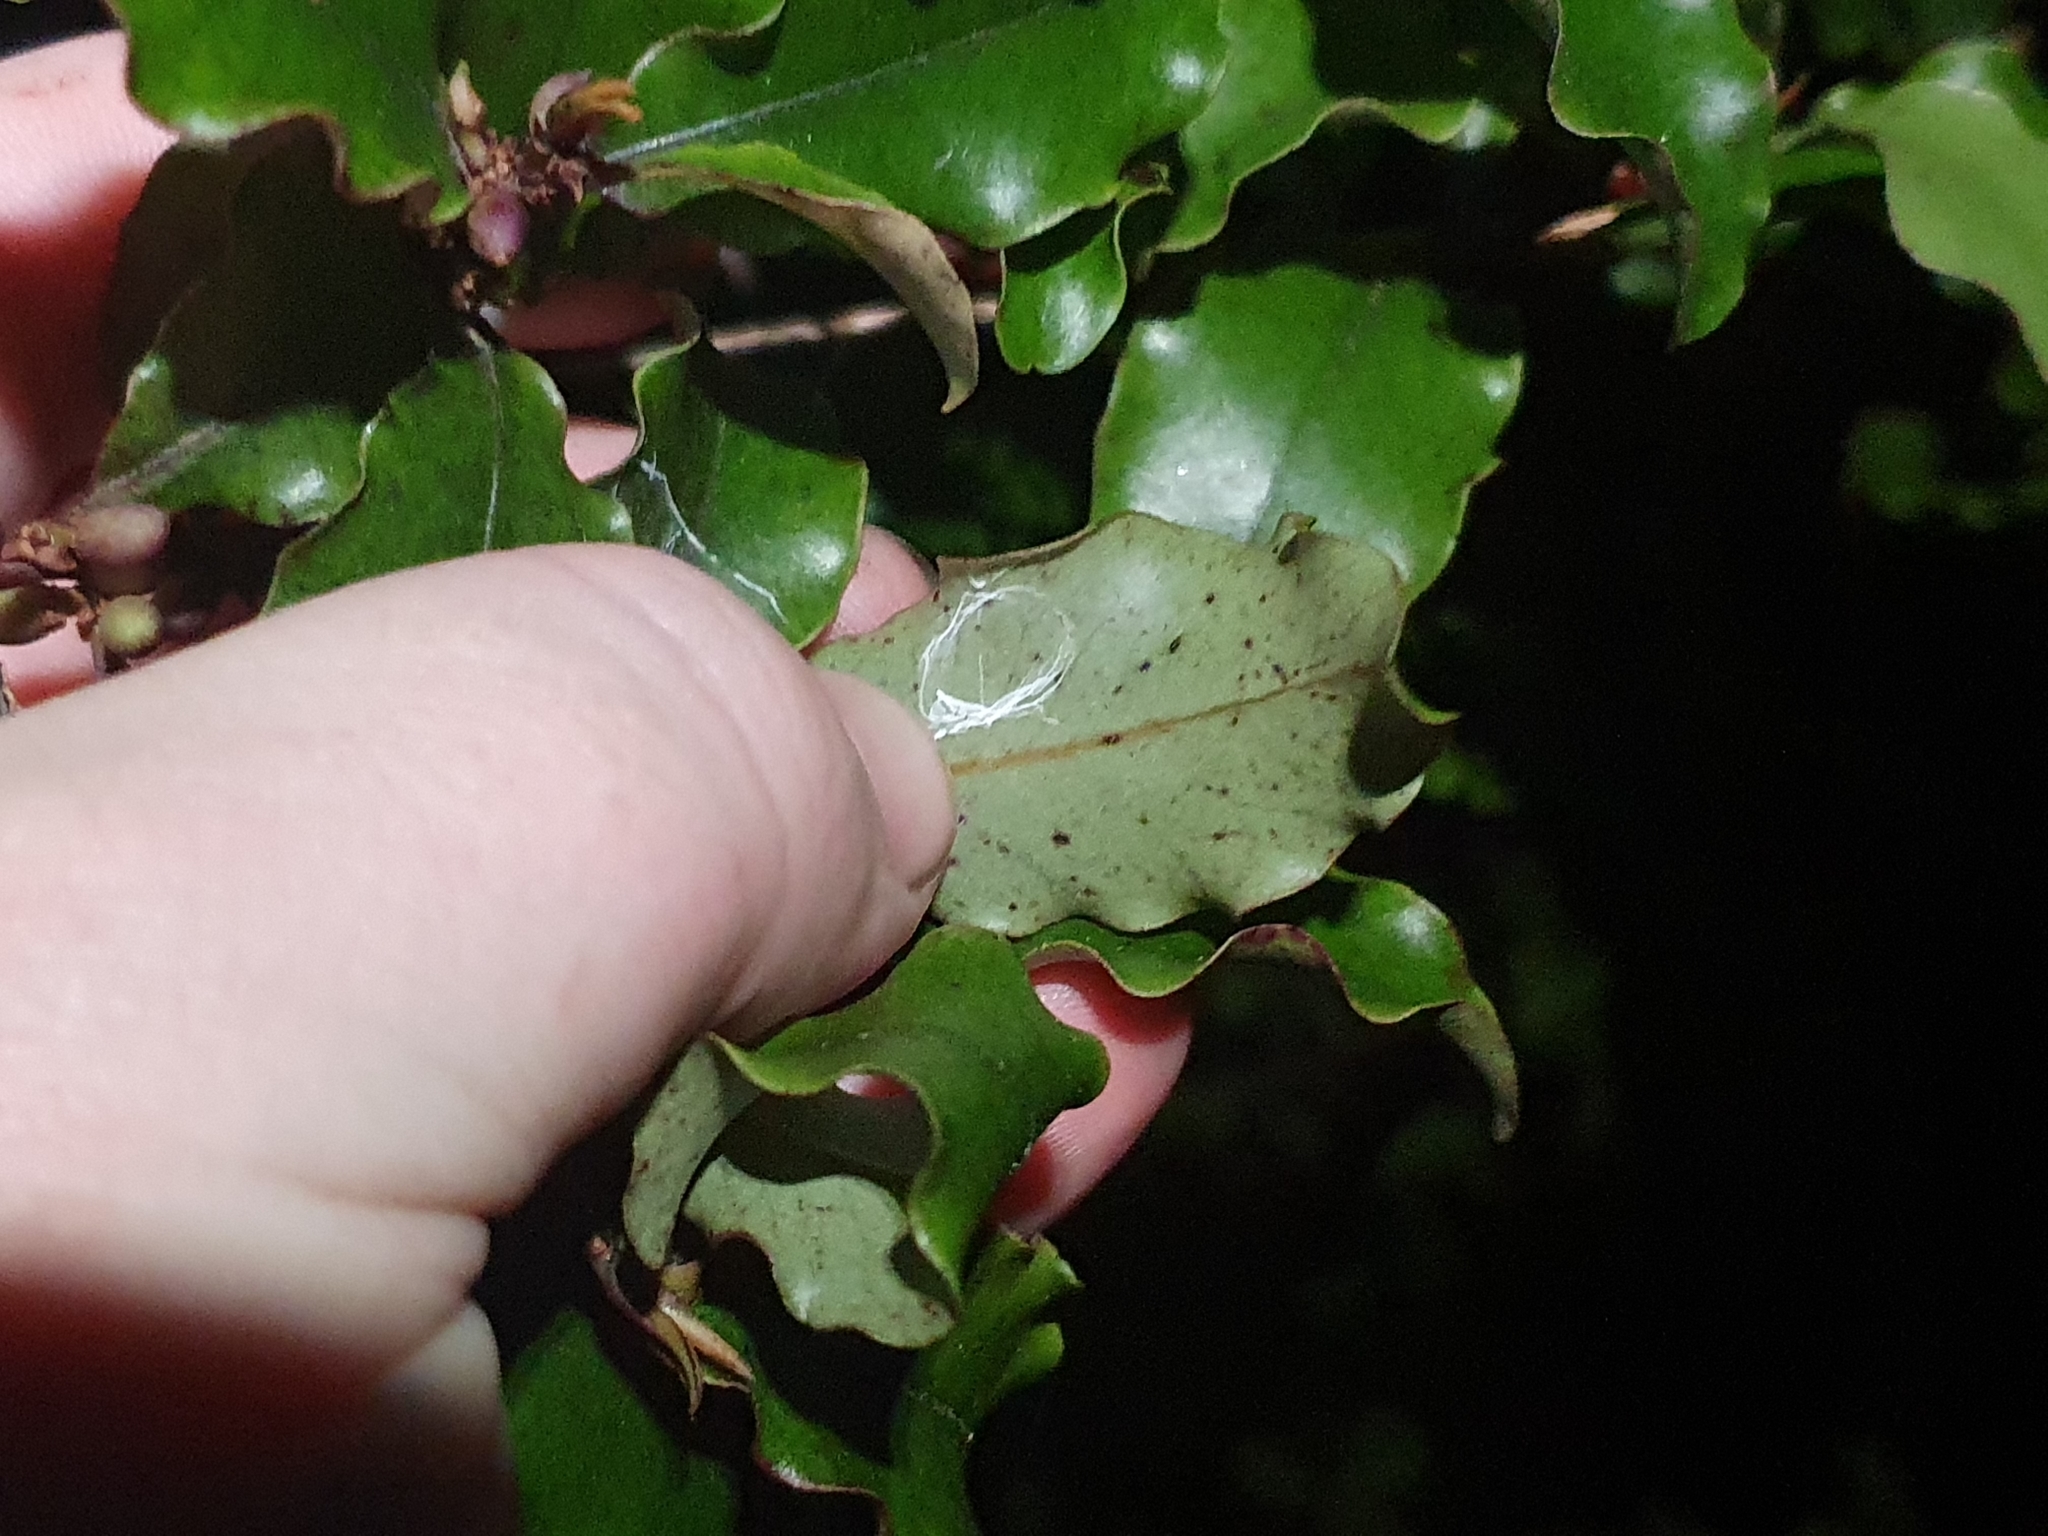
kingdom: Plantae
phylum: Tracheophyta
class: Magnoliopsida
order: Ericales
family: Primulaceae
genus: Myrsine
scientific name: Myrsine australis
